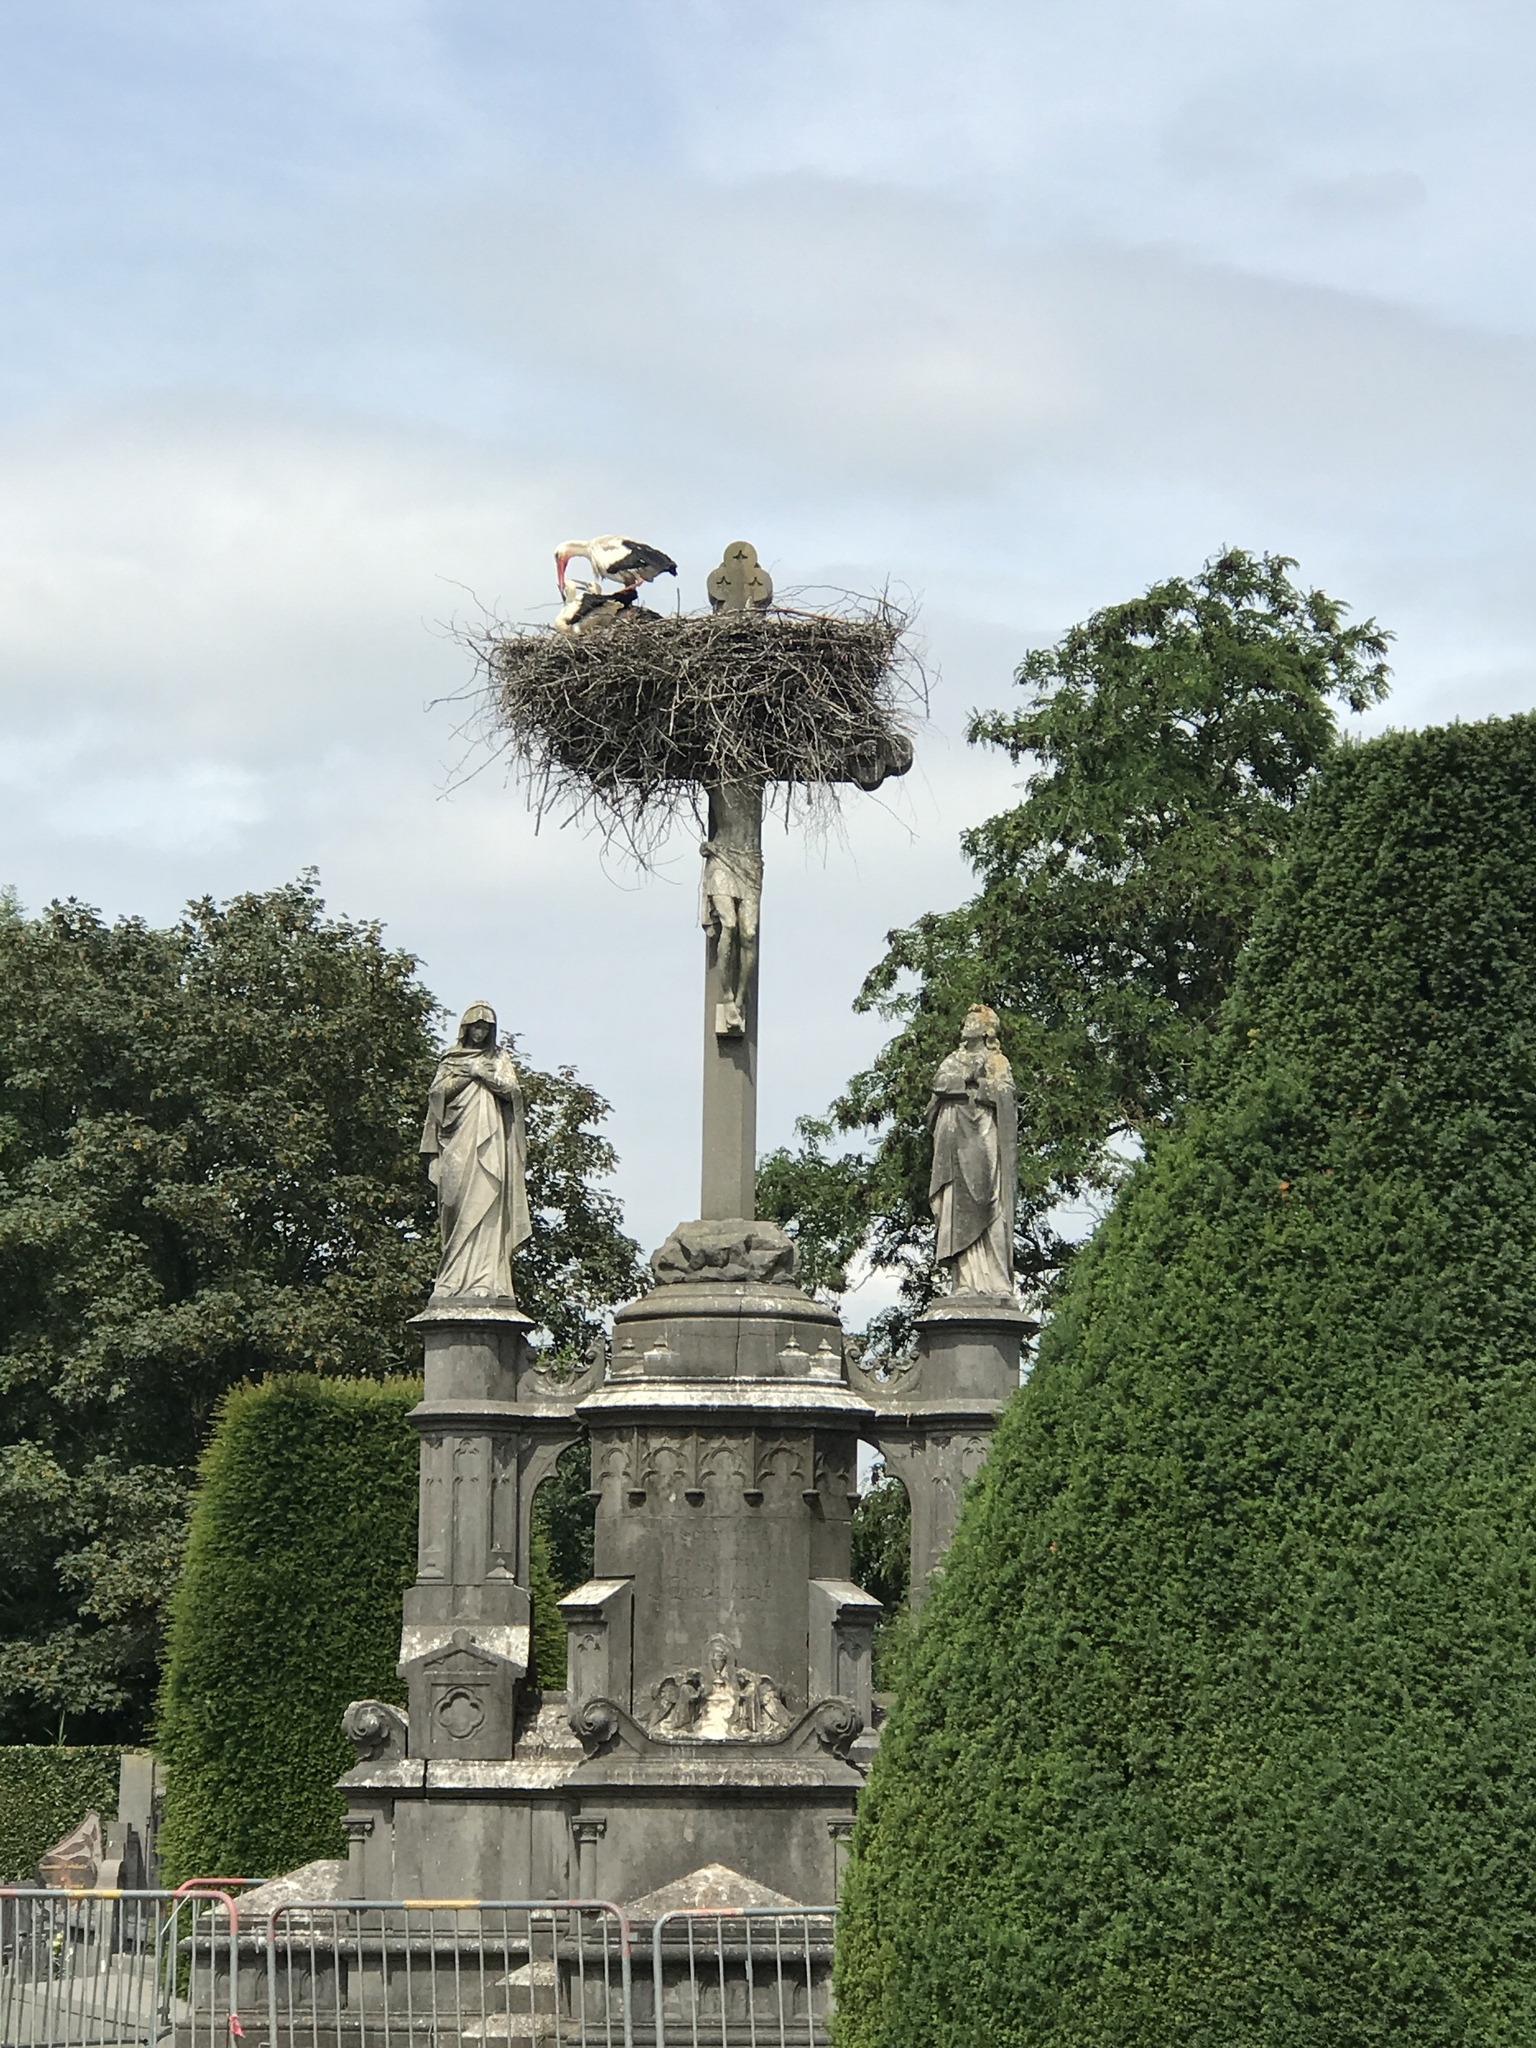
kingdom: Animalia
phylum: Chordata
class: Aves
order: Ciconiiformes
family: Ciconiidae
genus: Ciconia
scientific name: Ciconia ciconia
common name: White stork
